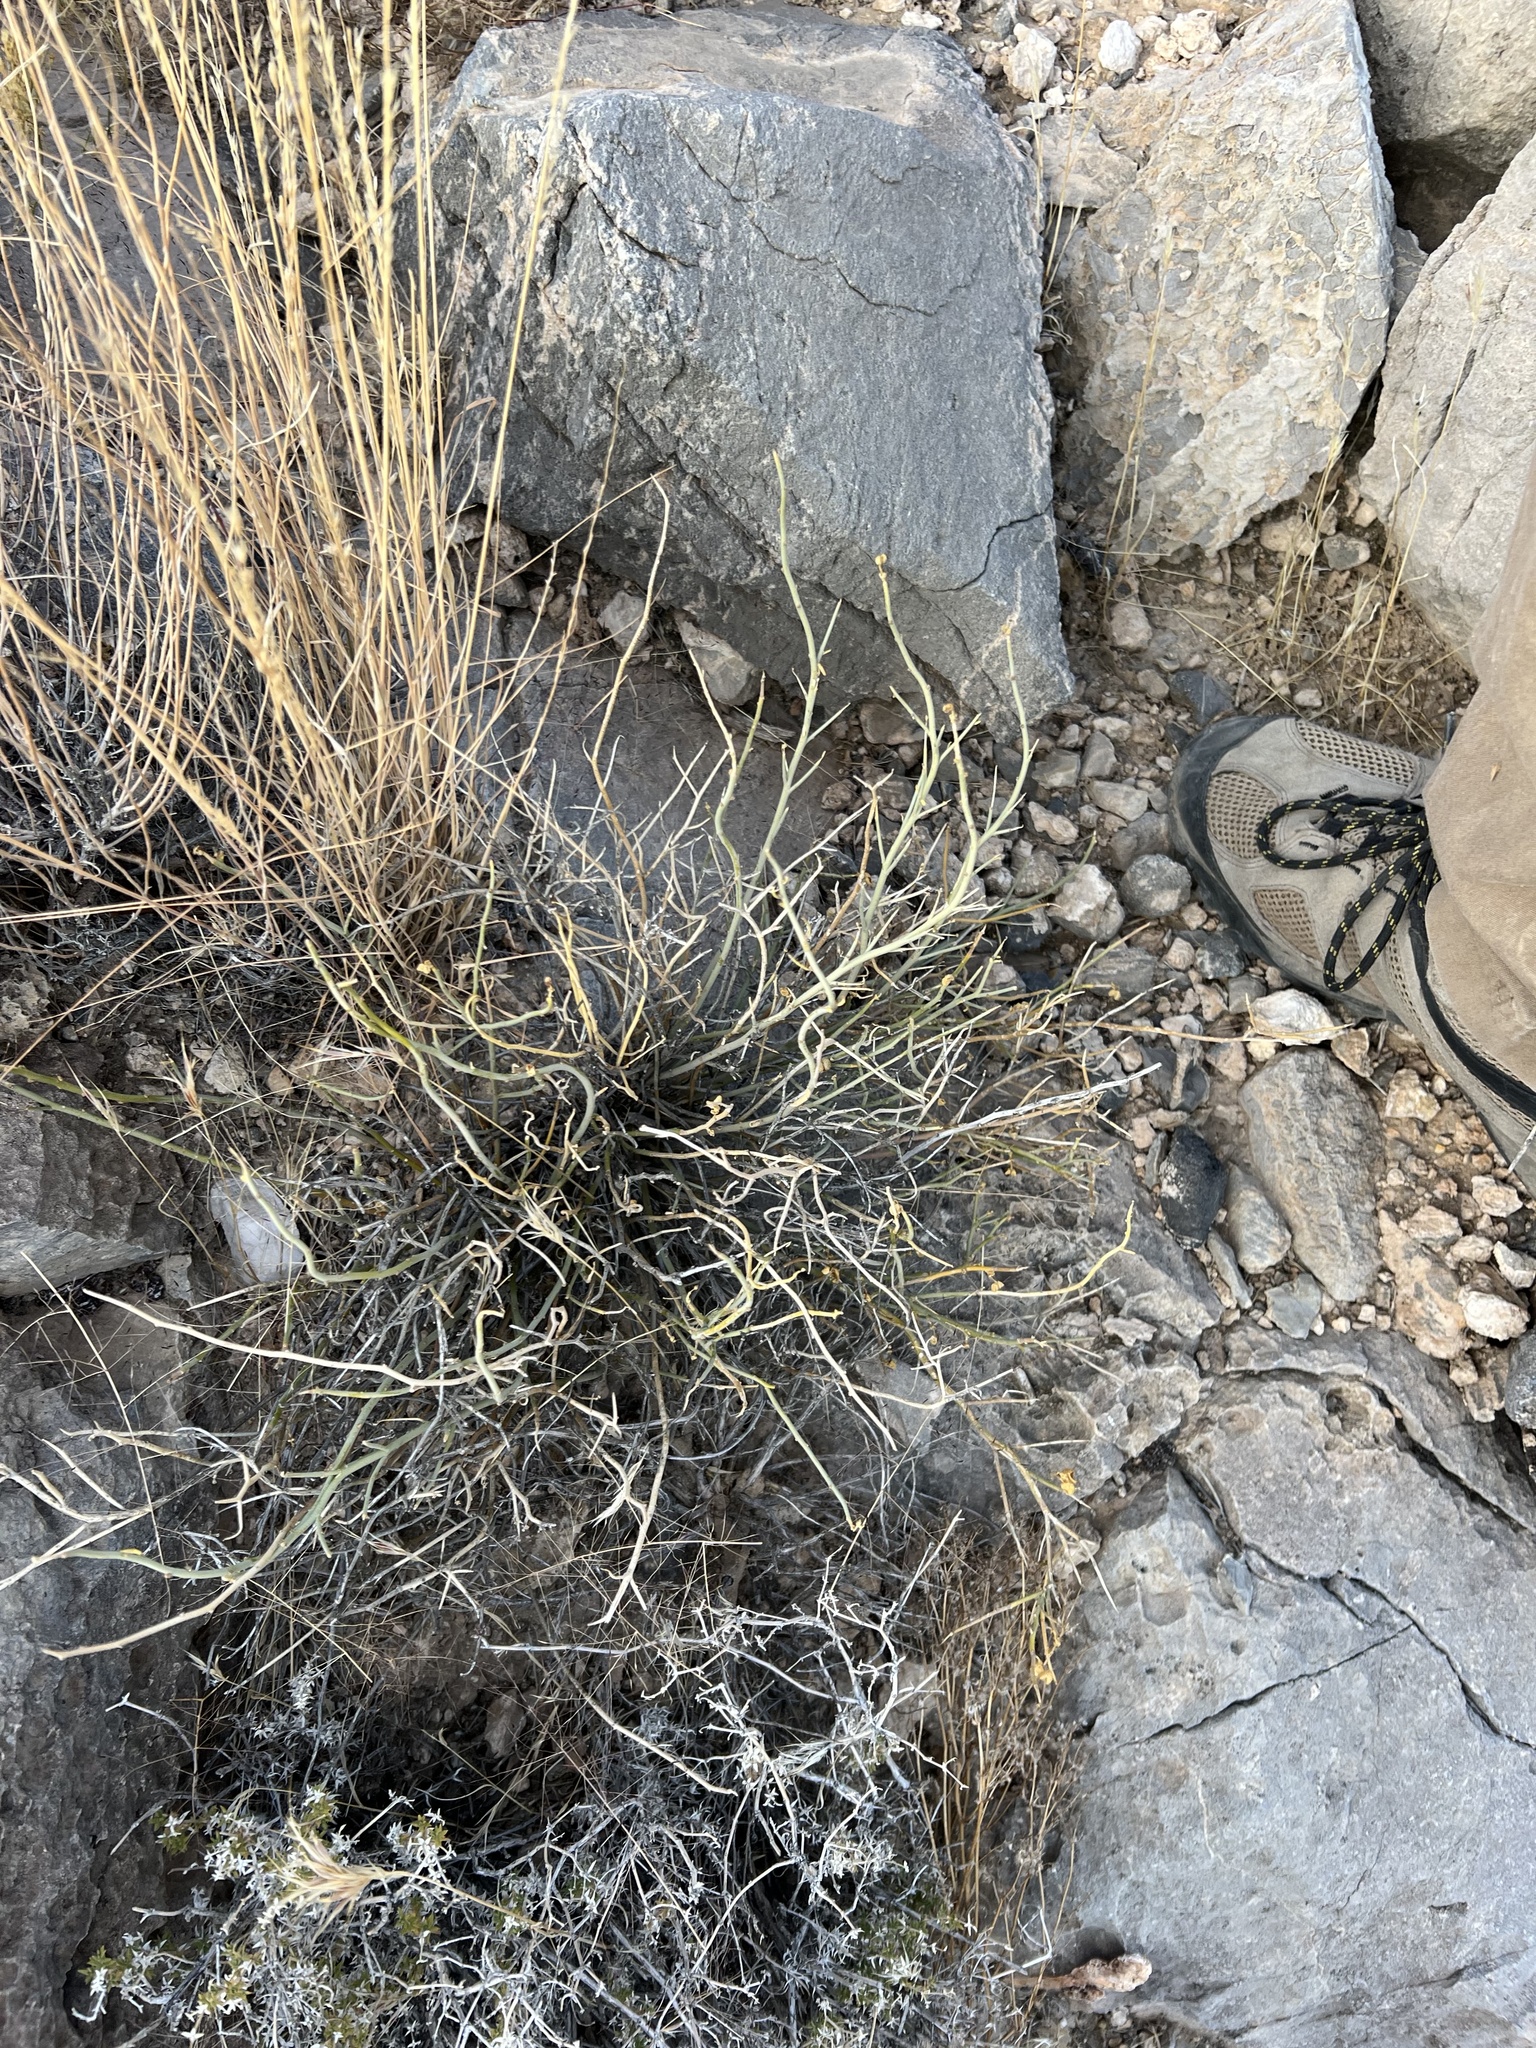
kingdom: Plantae
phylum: Tracheophyta
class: Magnoliopsida
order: Sapindales
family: Rutaceae
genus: Thamnosma
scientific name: Thamnosma montana
